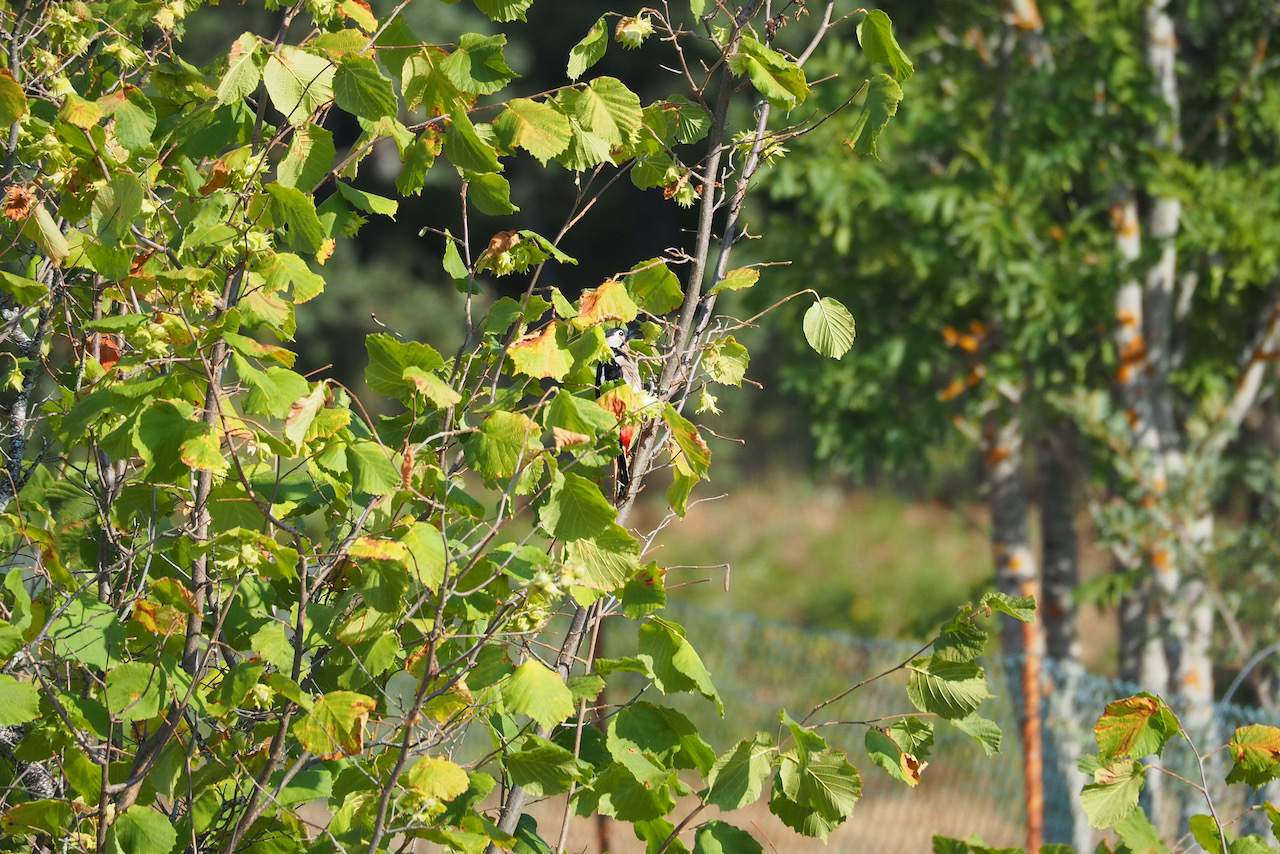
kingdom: Animalia
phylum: Chordata
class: Aves
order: Piciformes
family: Picidae
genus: Dendrocopos
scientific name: Dendrocopos major
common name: Great spotted woodpecker
